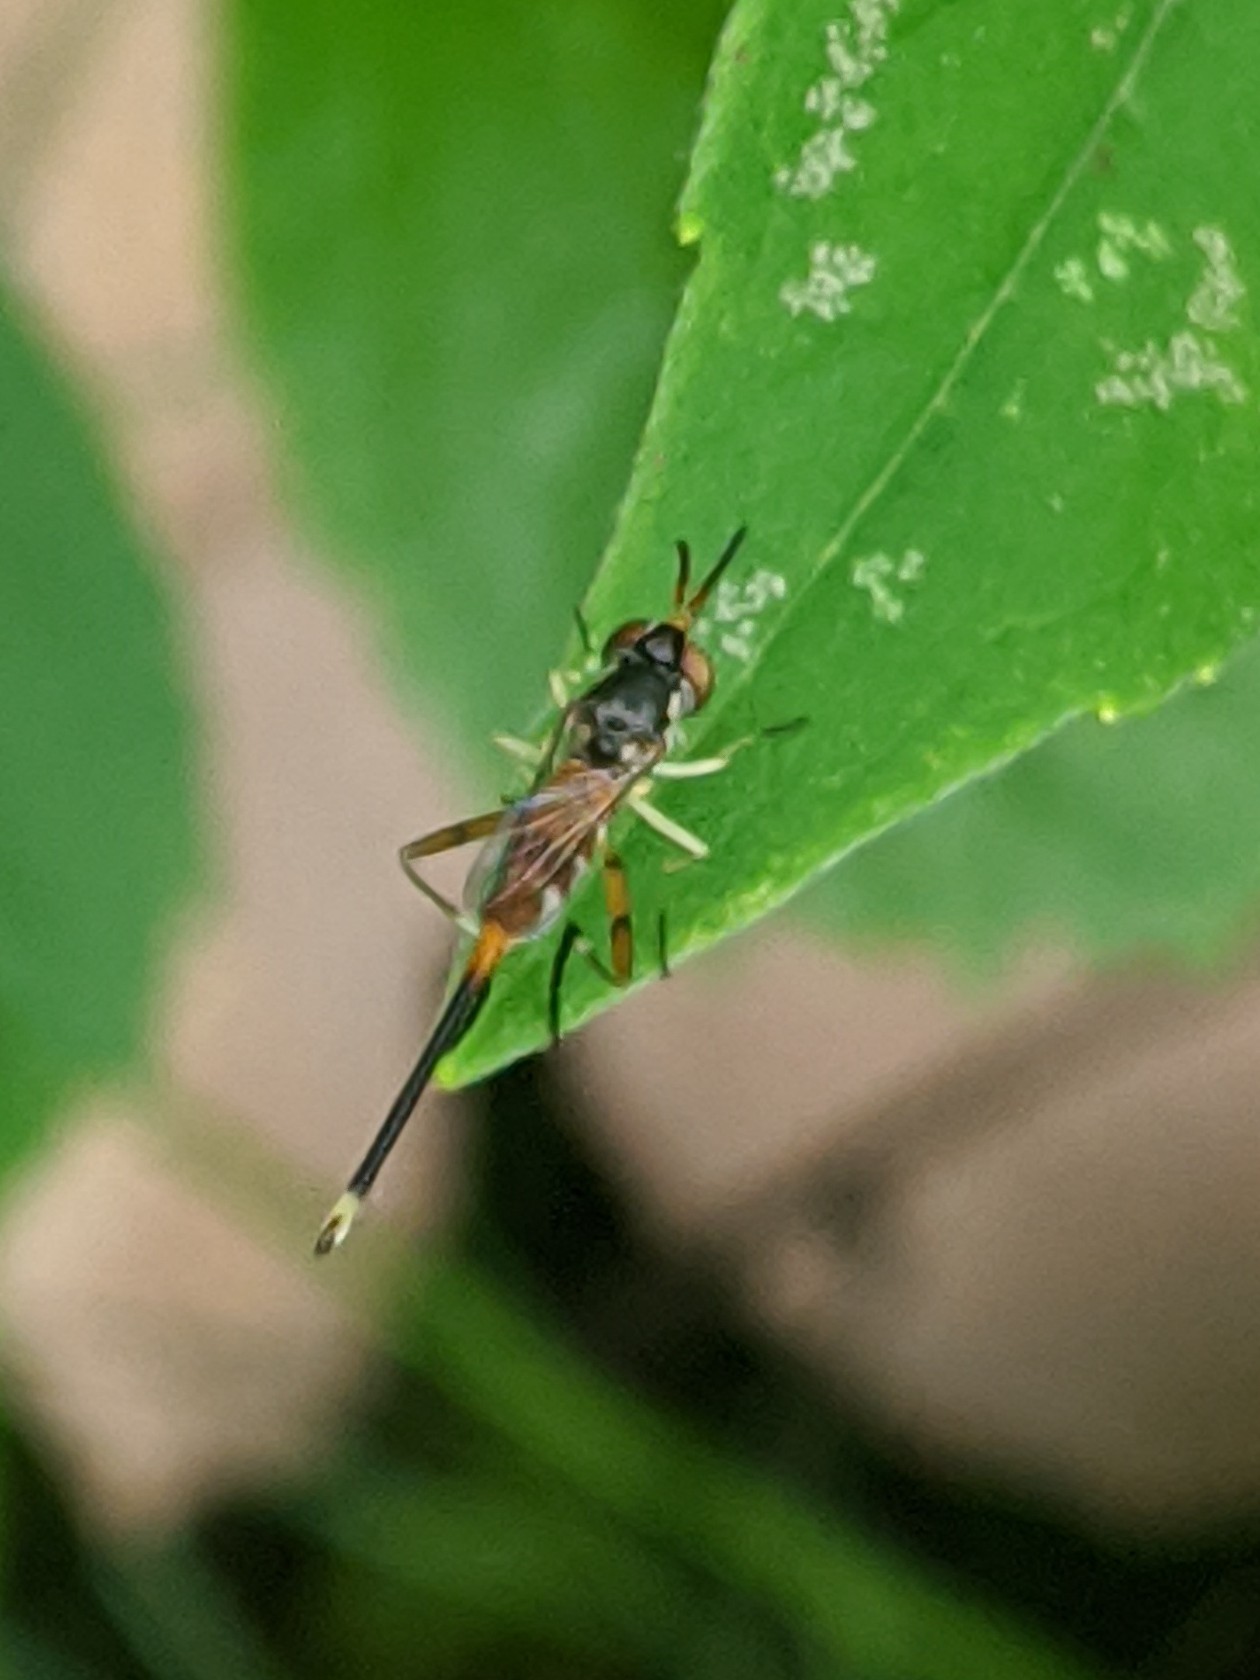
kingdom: Animalia
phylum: Arthropoda
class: Insecta
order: Diptera
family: Conopidae
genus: Stylogaster
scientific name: Stylogaster neglecta
